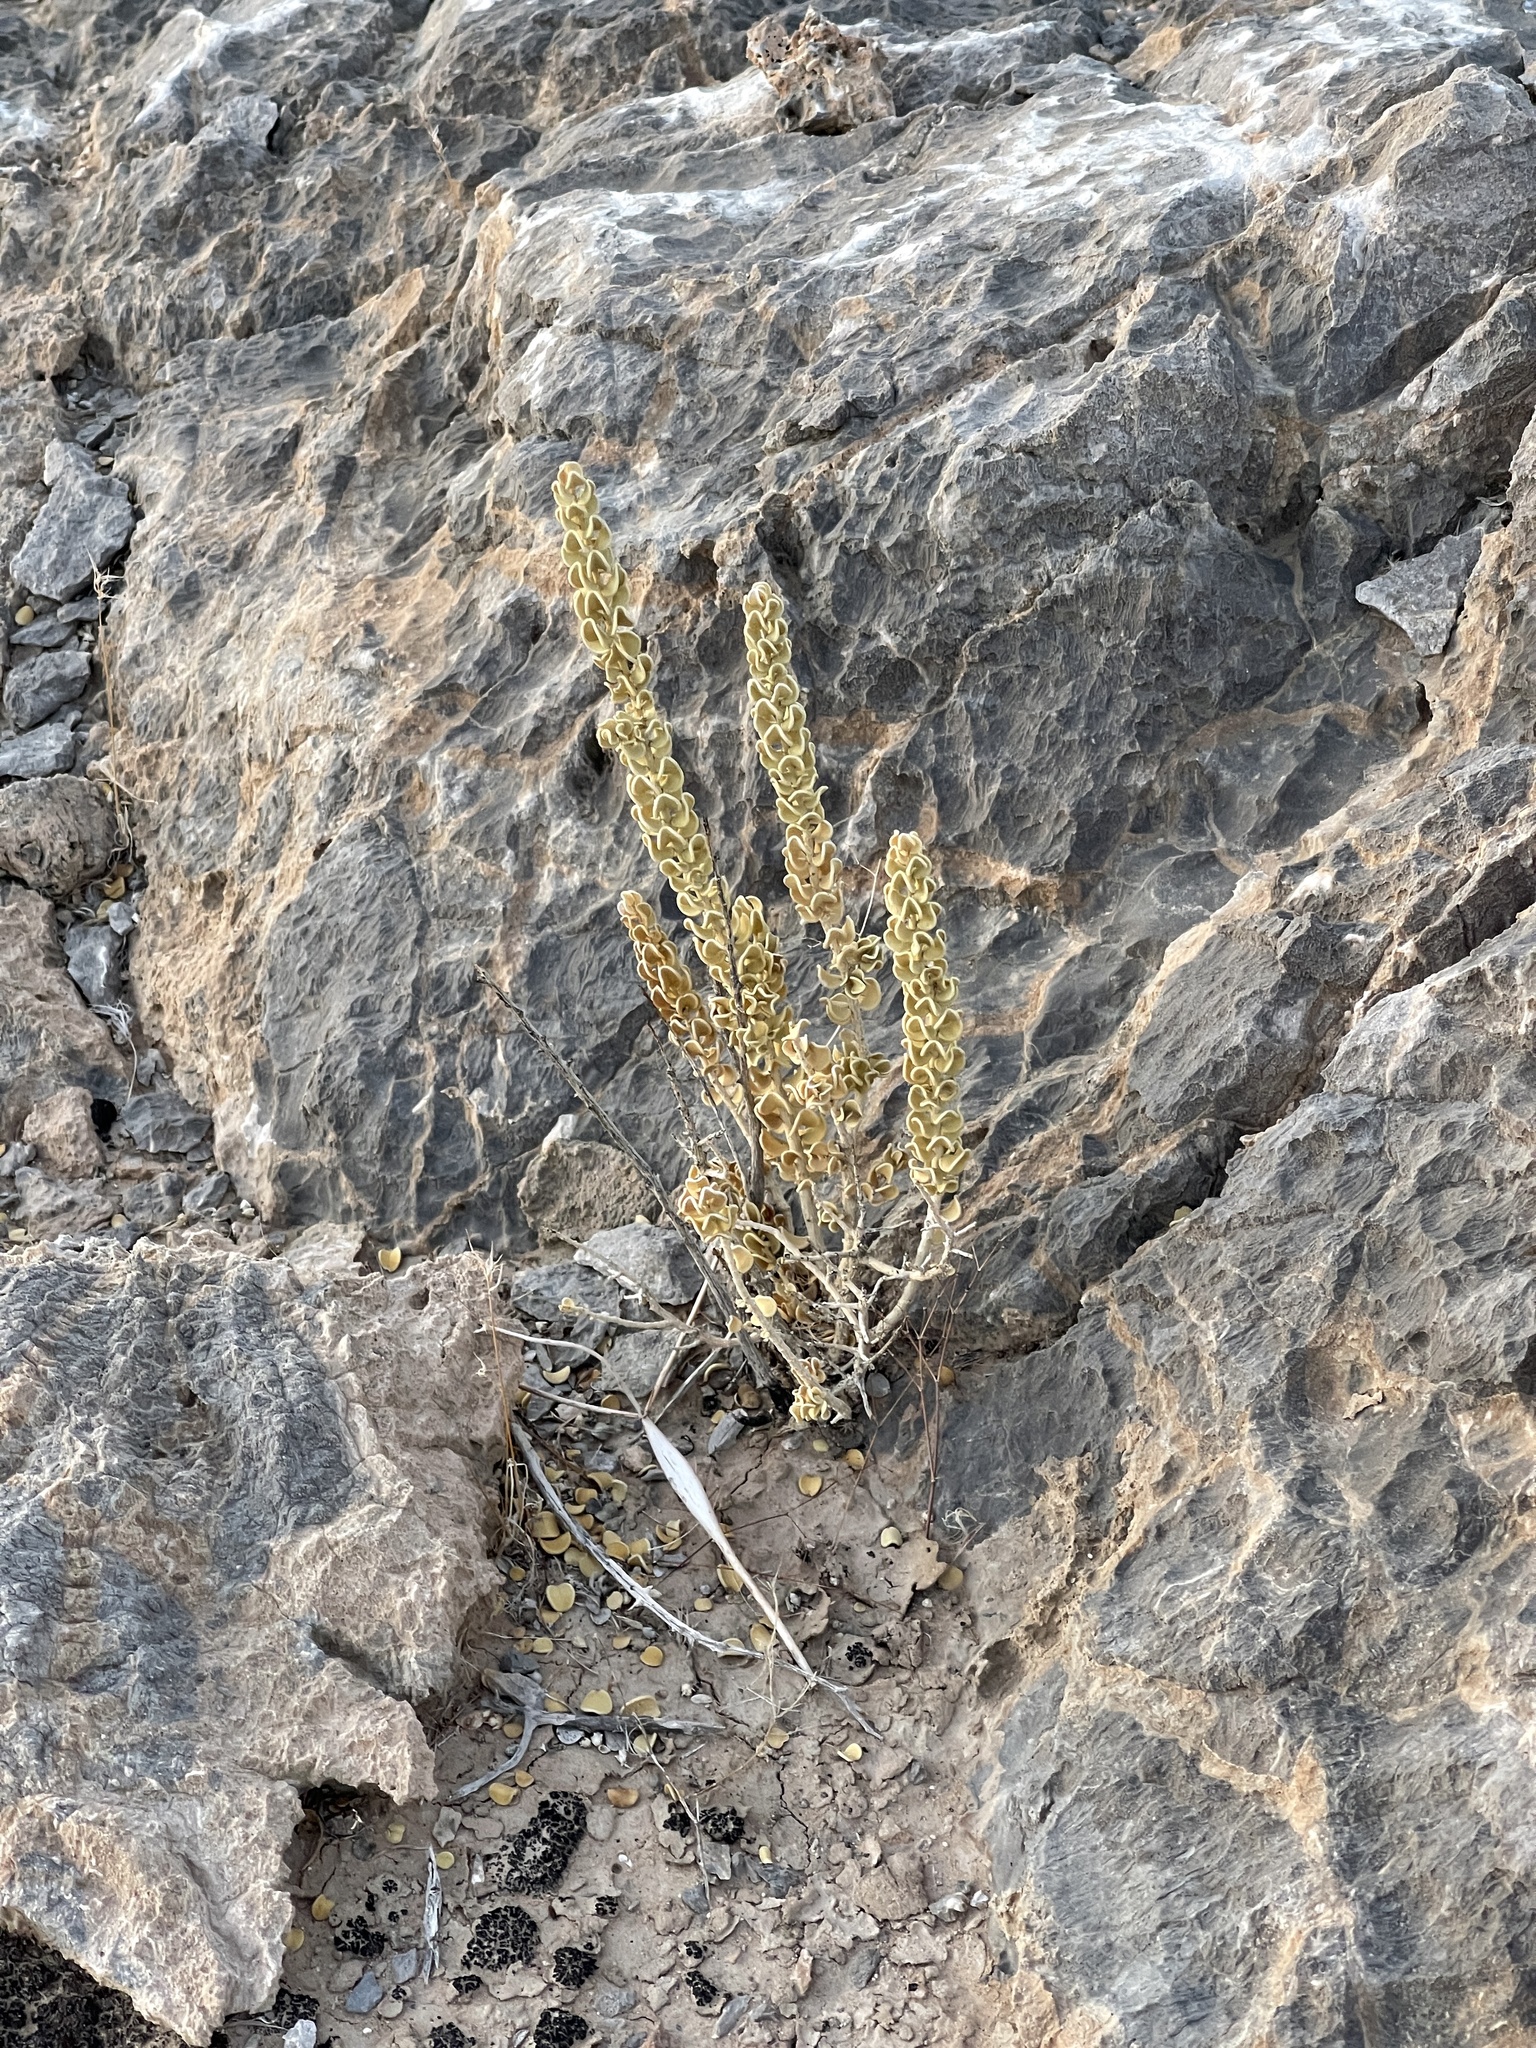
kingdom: Plantae
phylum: Tracheophyta
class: Magnoliopsida
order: Celastrales
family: Celastraceae
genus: Mortonia
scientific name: Mortonia utahensis
